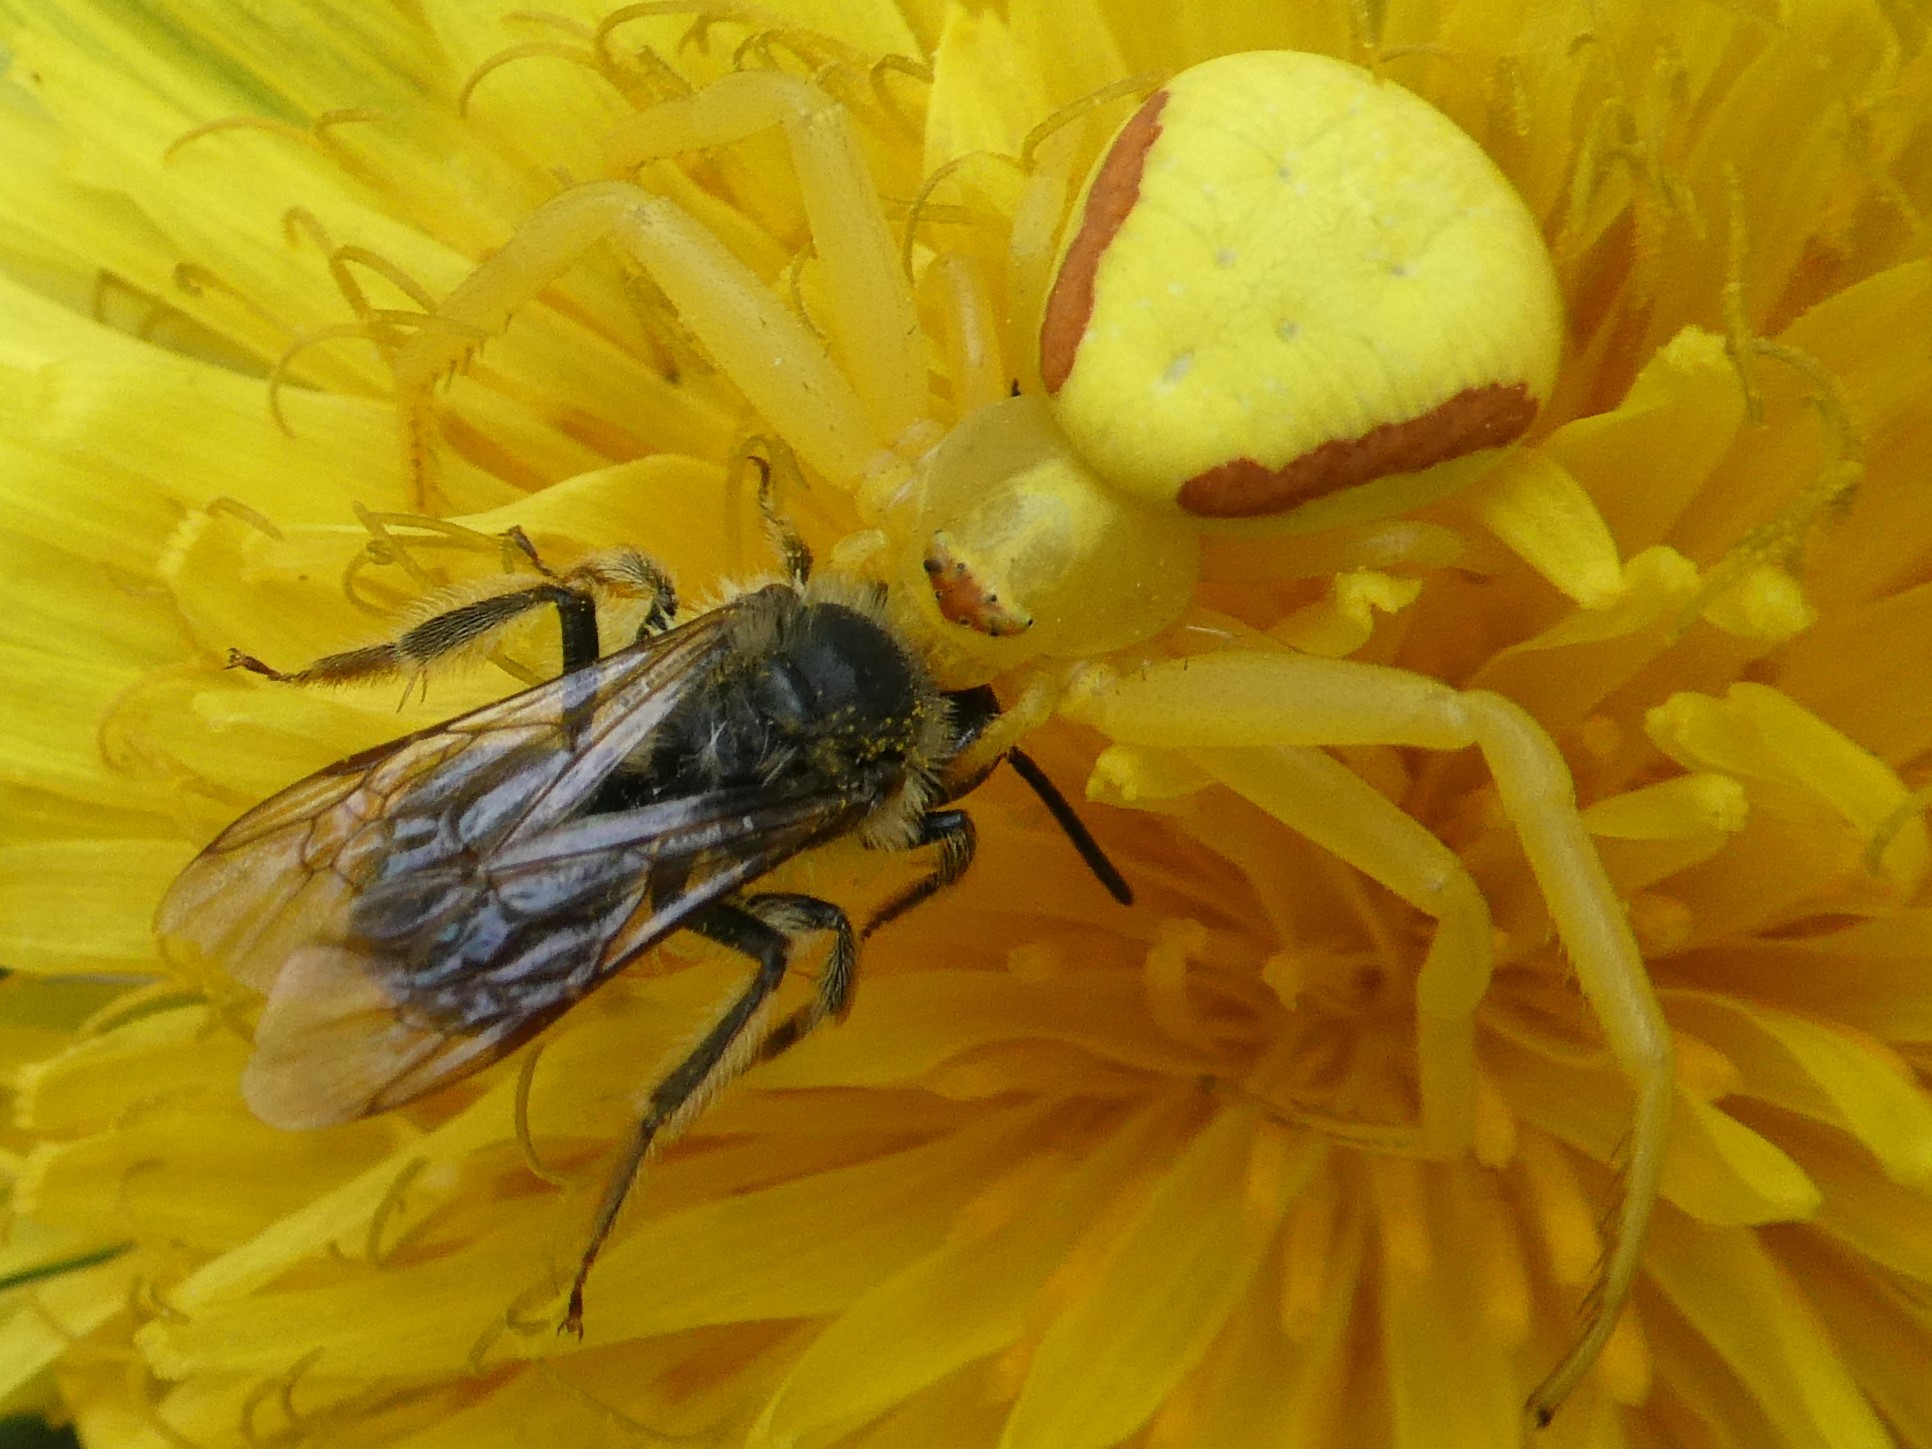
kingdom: Animalia
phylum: Arthropoda
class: Arachnida
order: Araneae
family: Thomisidae
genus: Misumena
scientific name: Misumena vatia
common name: Goldenrod crab spider
